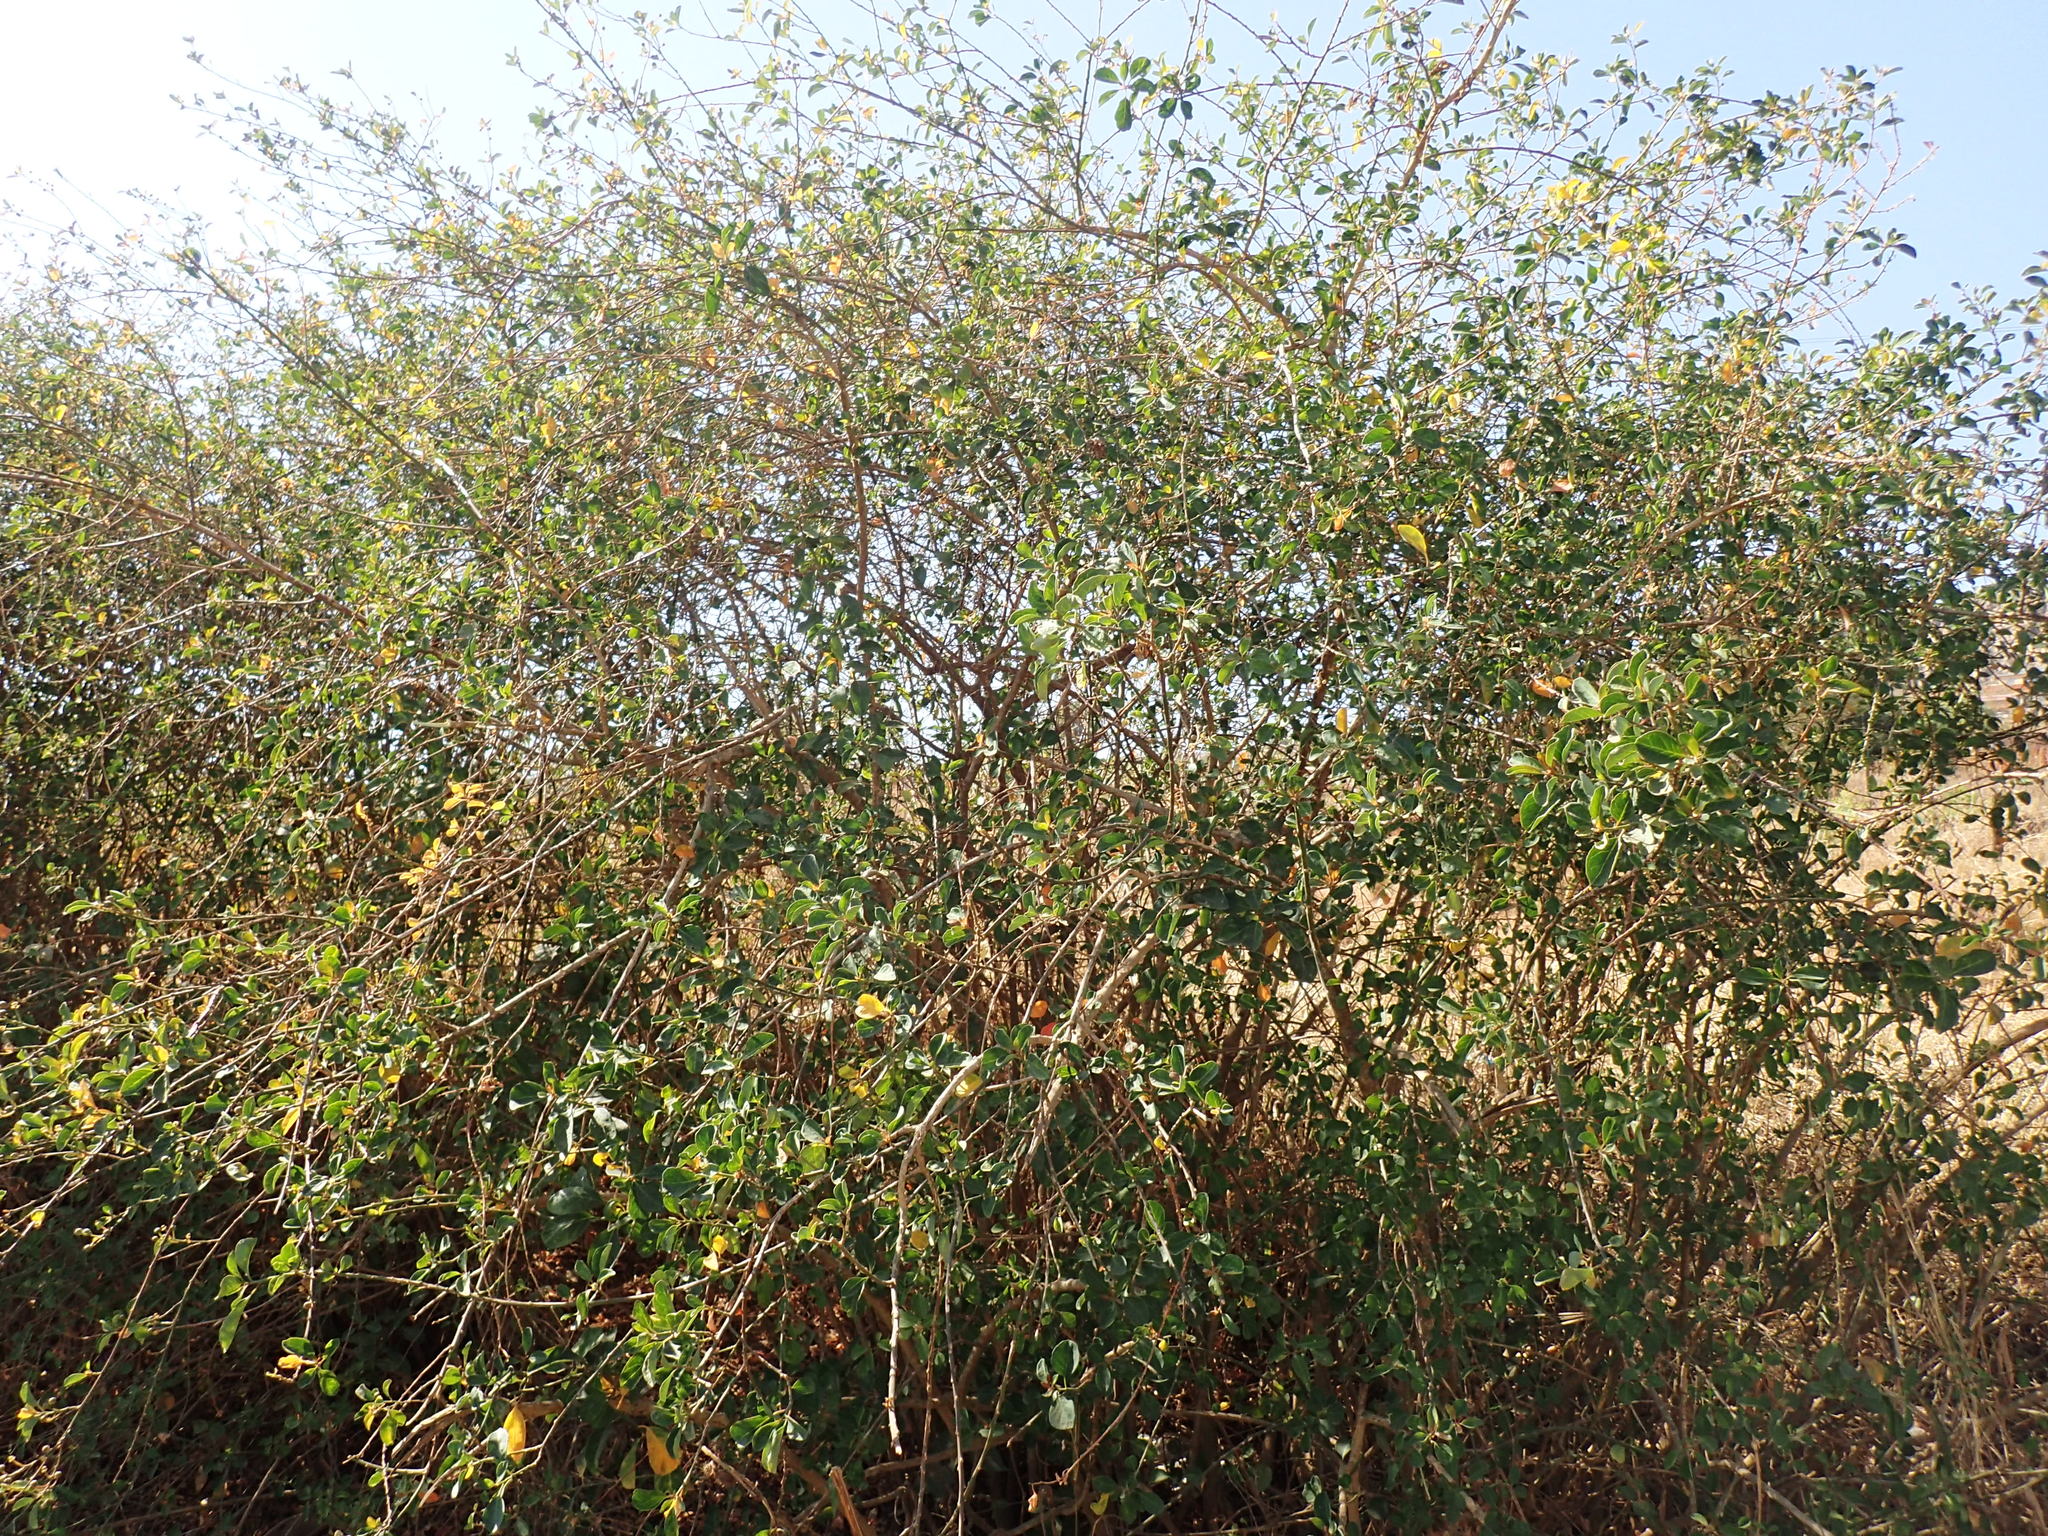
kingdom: Plantae
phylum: Tracheophyta
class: Magnoliopsida
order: Malpighiales
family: Peraceae
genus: Clutia
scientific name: Clutia pulchella
